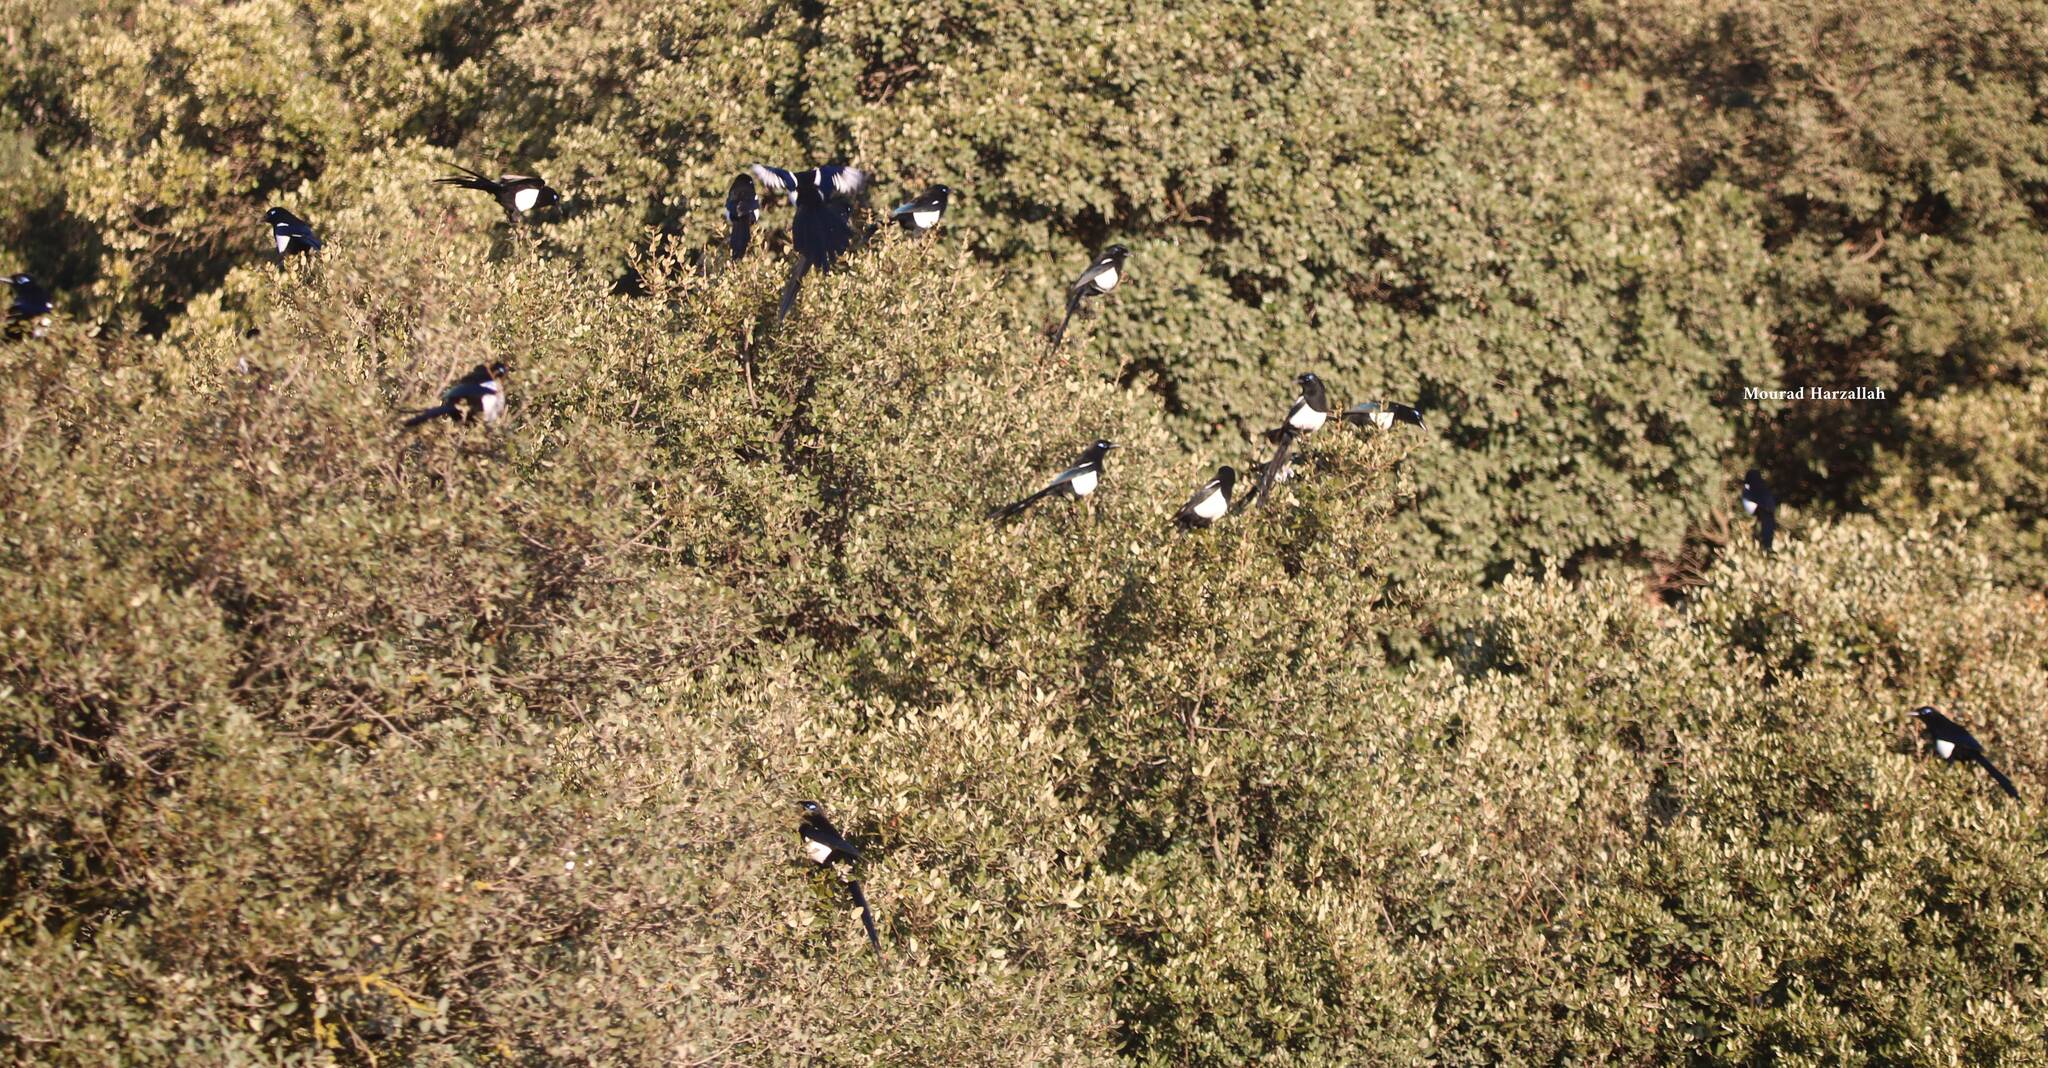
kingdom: Animalia
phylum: Chordata
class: Aves
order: Passeriformes
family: Corvidae
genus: Pica
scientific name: Pica mauritanica
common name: Maghreb magpie
